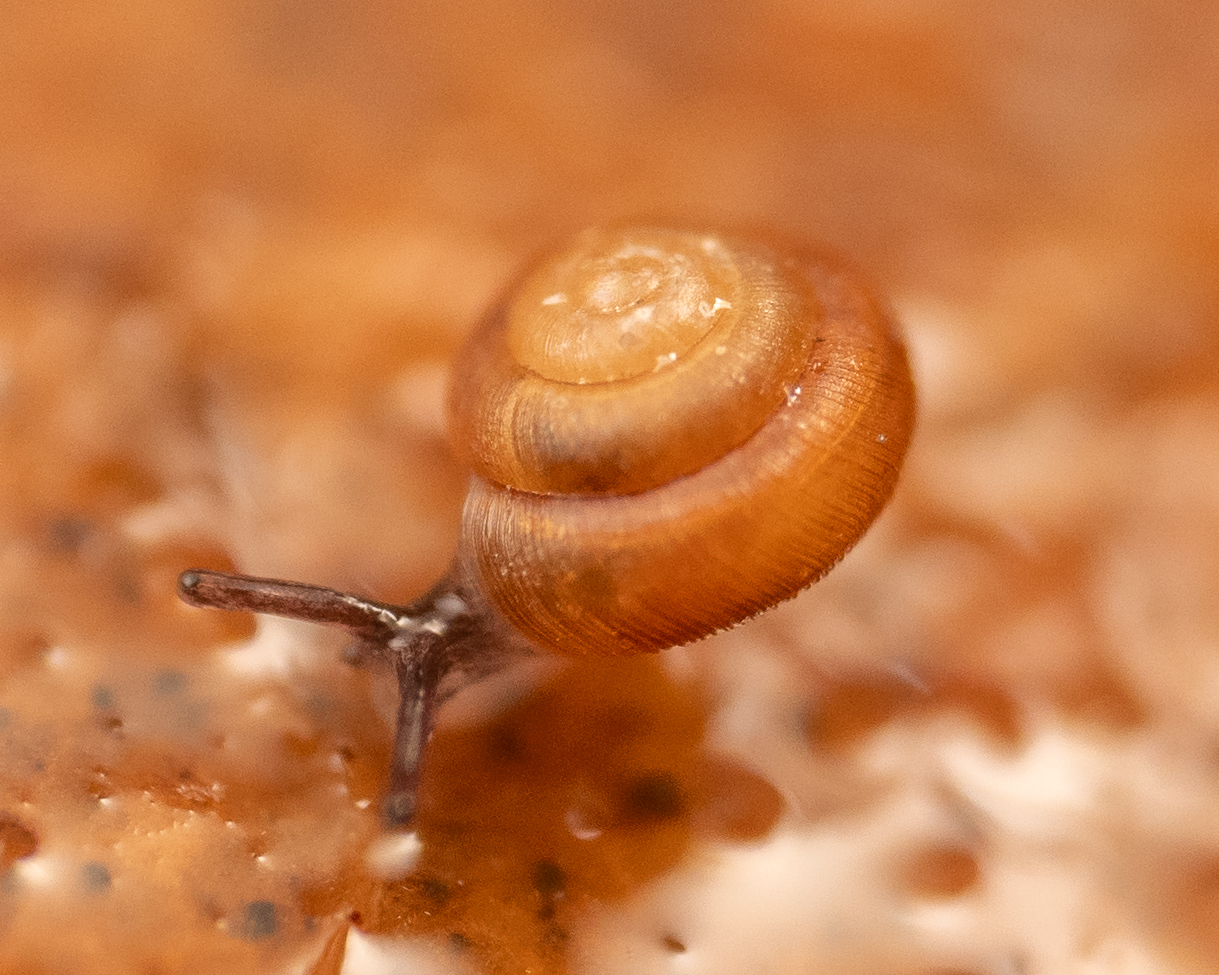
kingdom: Animalia
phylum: Mollusca
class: Gastropoda
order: Stylommatophora
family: Punctidae
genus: Punctum
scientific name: Punctum randolphii
